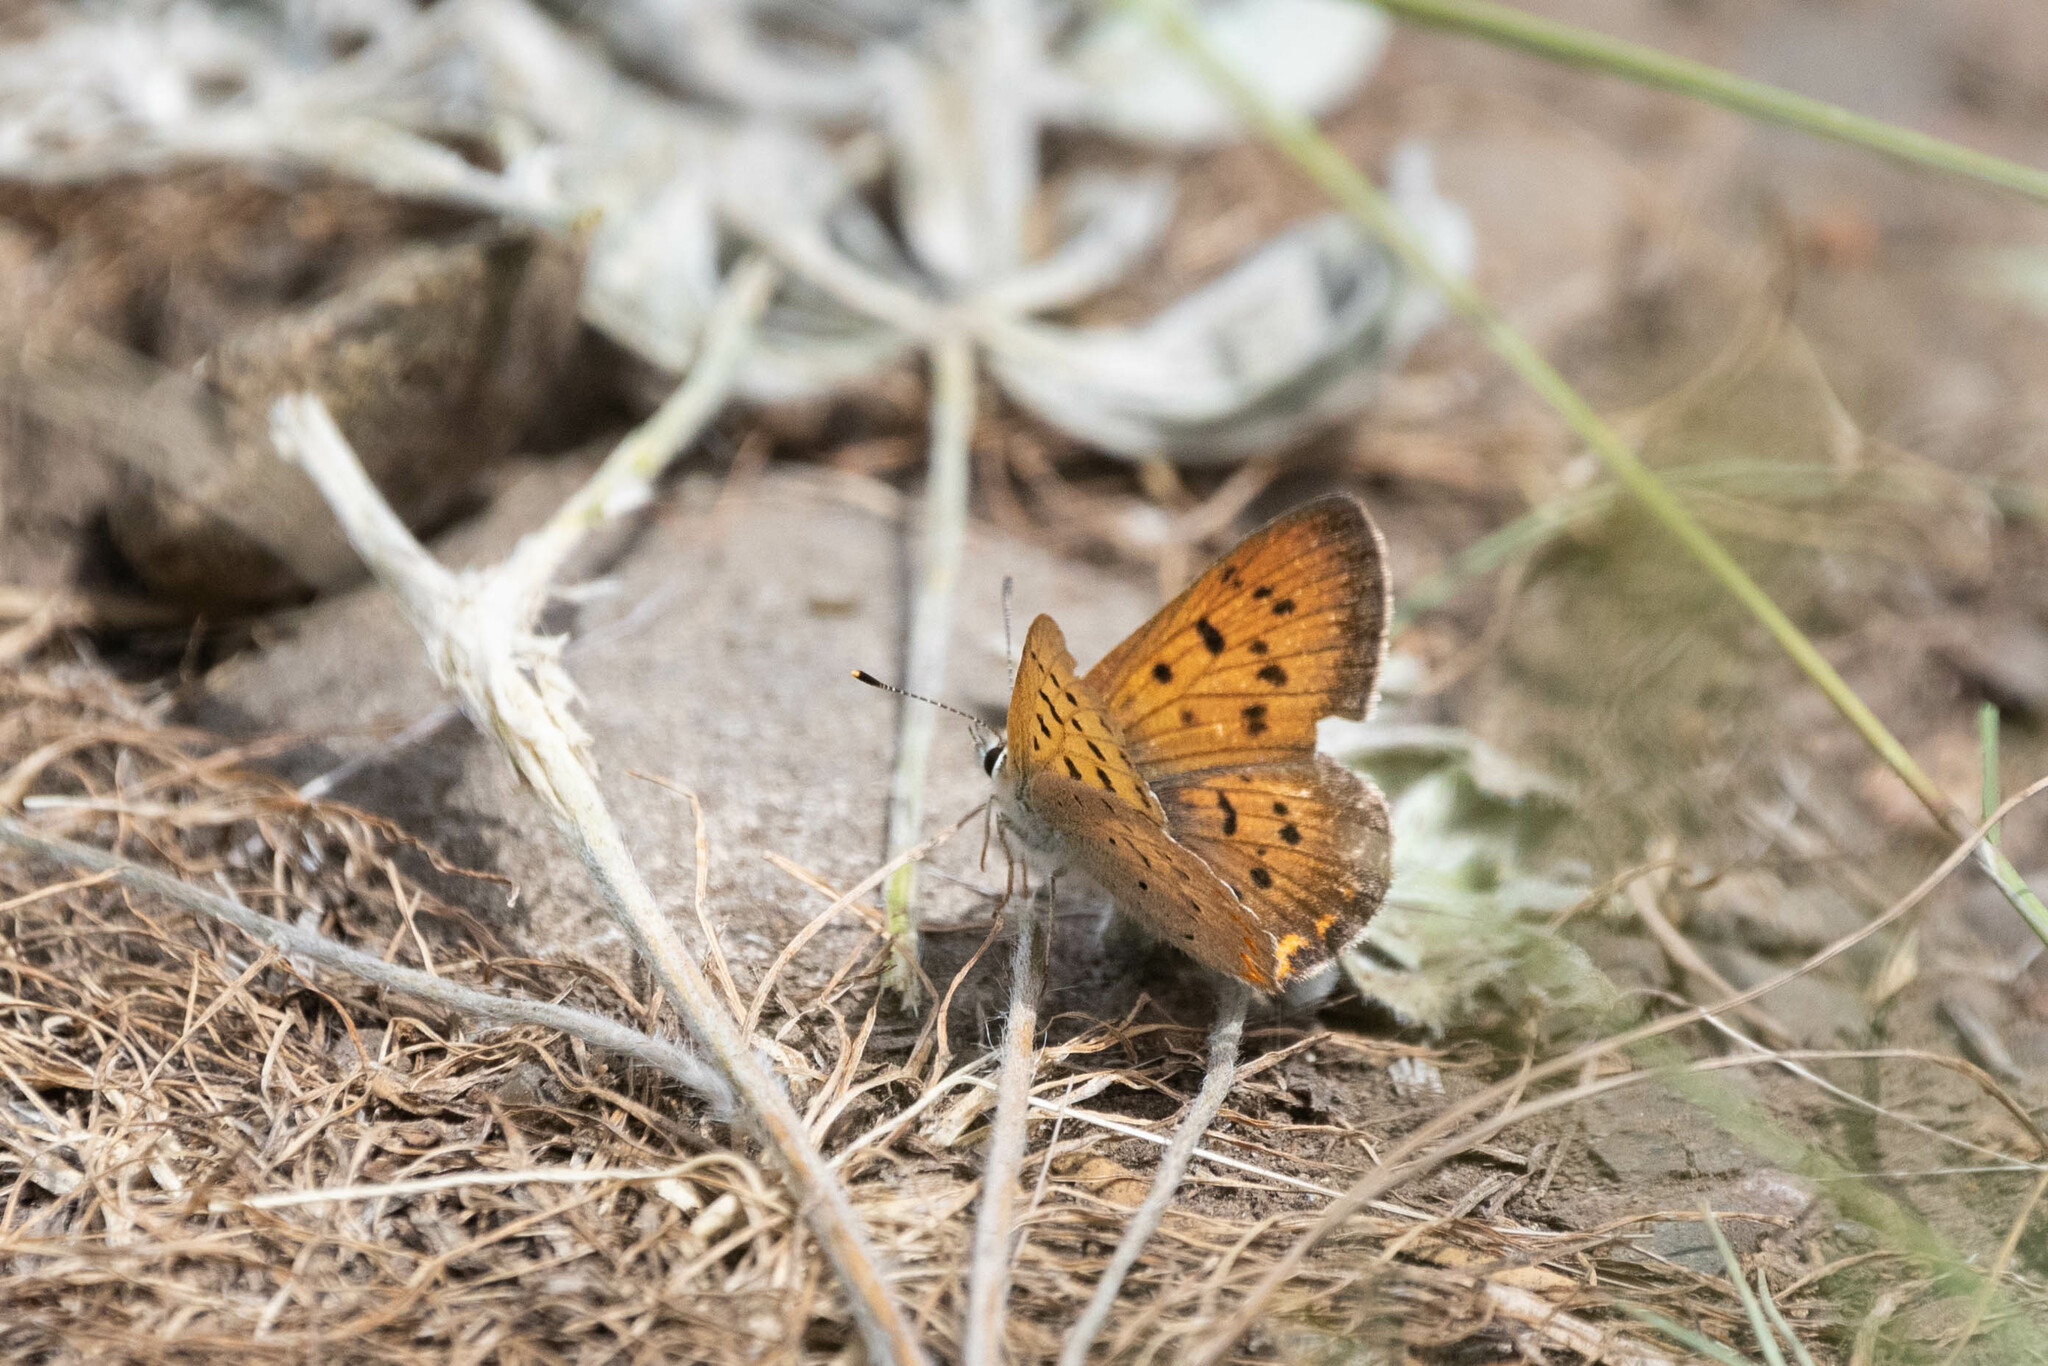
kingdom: Animalia
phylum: Arthropoda
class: Insecta
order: Lepidoptera
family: Lycaenidae
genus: Tharsalea
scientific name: Tharsalea helloides
